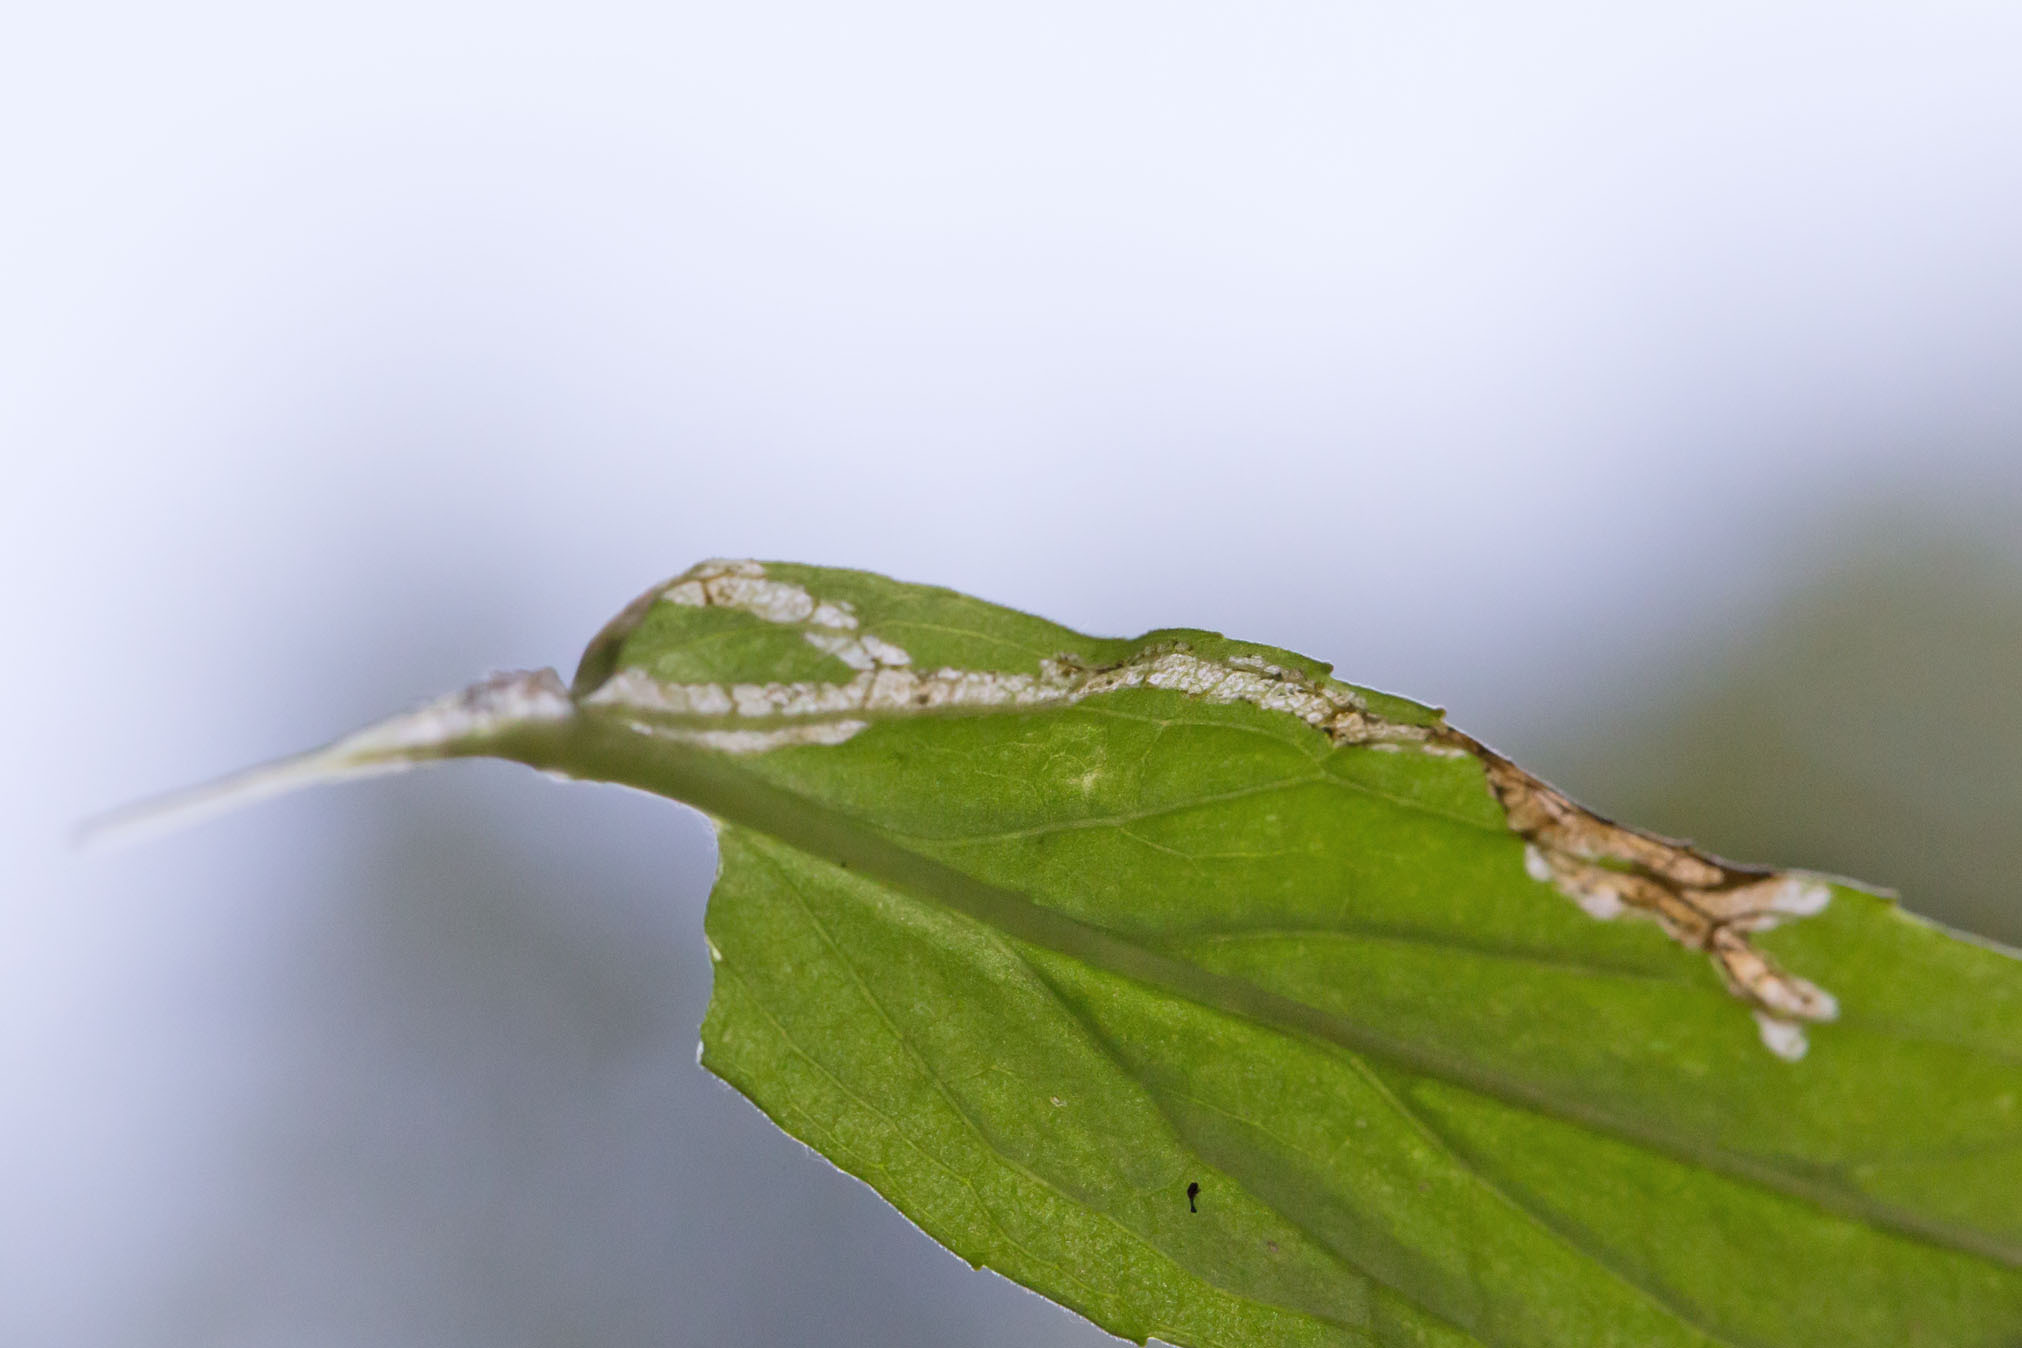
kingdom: Animalia
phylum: Arthropoda
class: Insecta
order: Diptera
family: Agromyzidae
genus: Ophiomyia
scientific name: Ophiomyia mimuli
